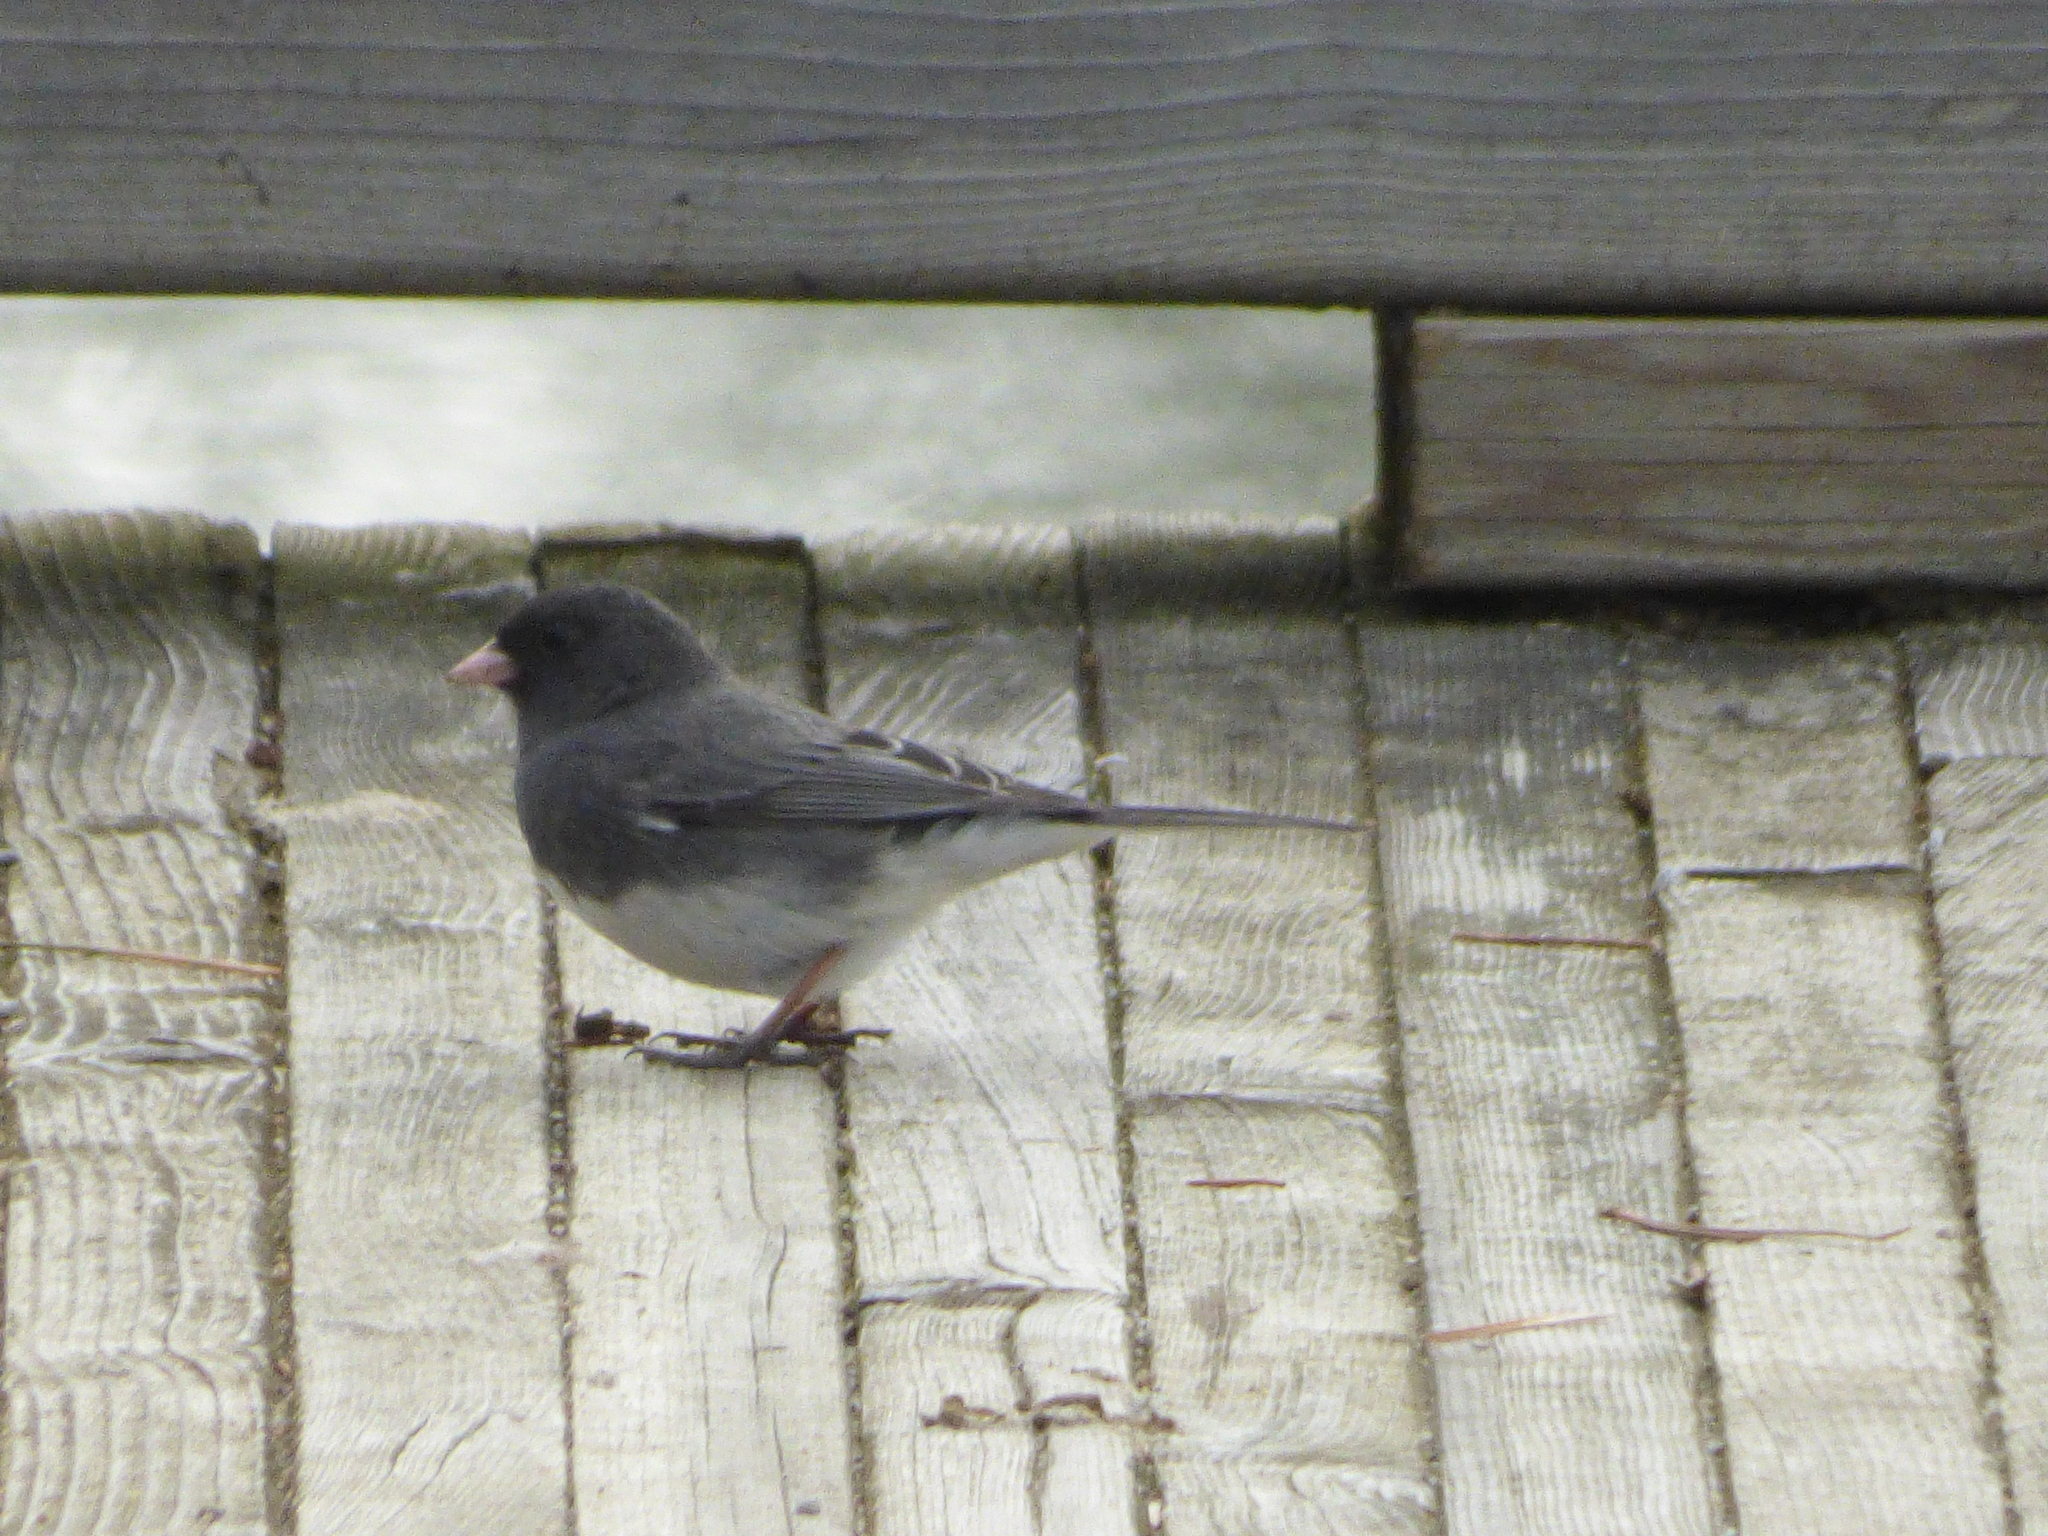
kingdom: Animalia
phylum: Chordata
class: Aves
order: Passeriformes
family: Passerellidae
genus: Junco
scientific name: Junco hyemalis
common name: Dark-eyed junco
